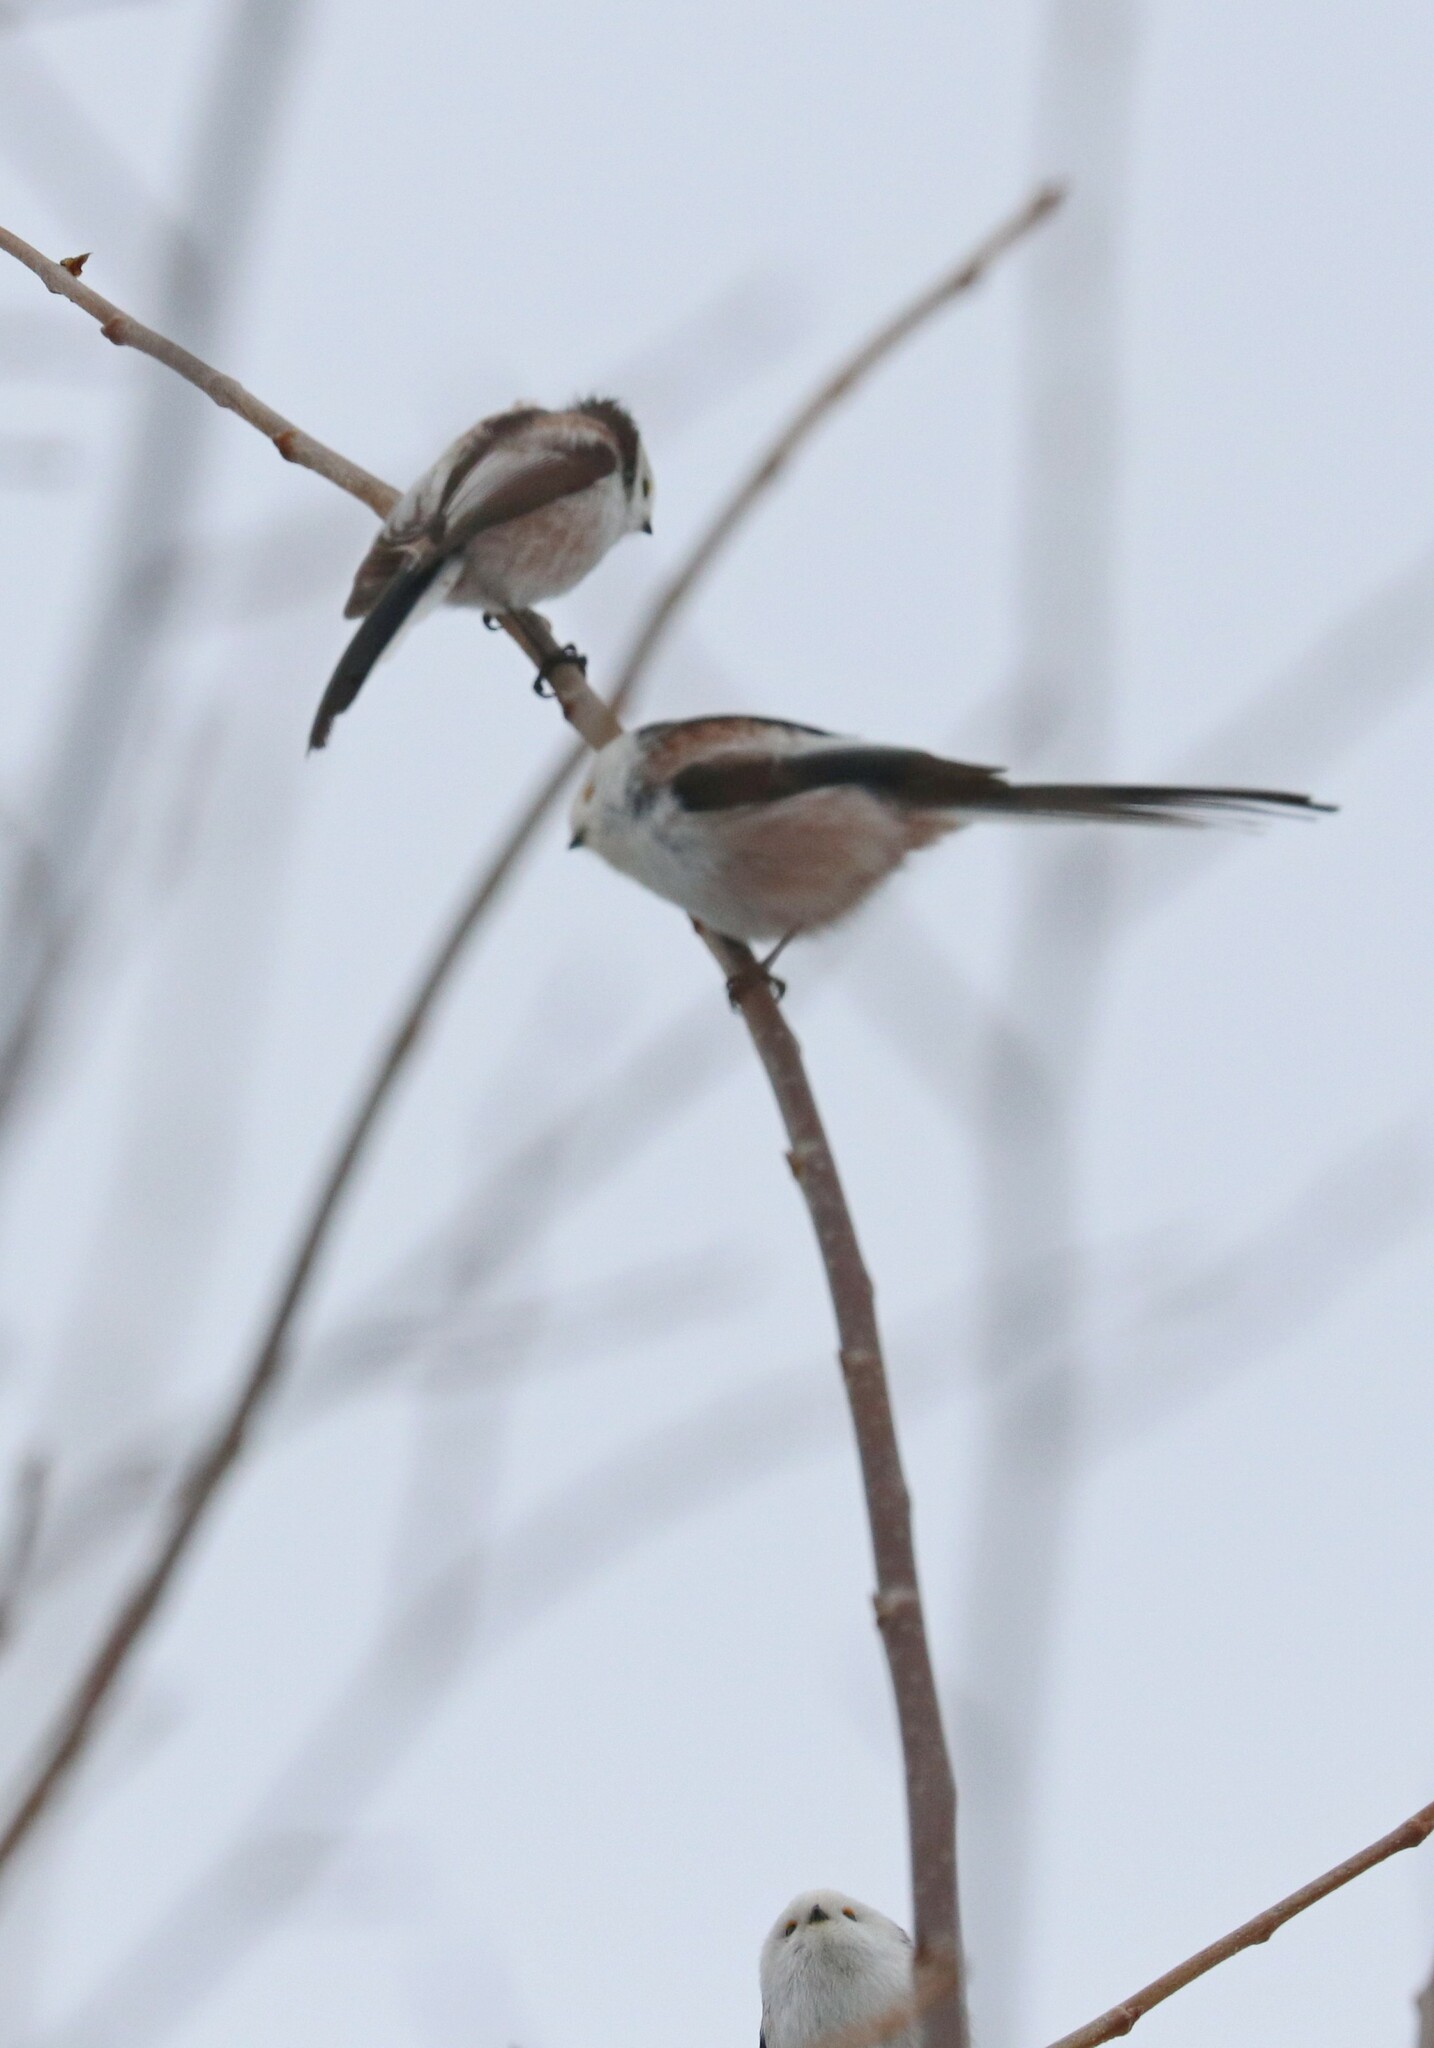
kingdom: Animalia
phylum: Chordata
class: Aves
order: Passeriformes
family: Aegithalidae
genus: Aegithalos
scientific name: Aegithalos caudatus
